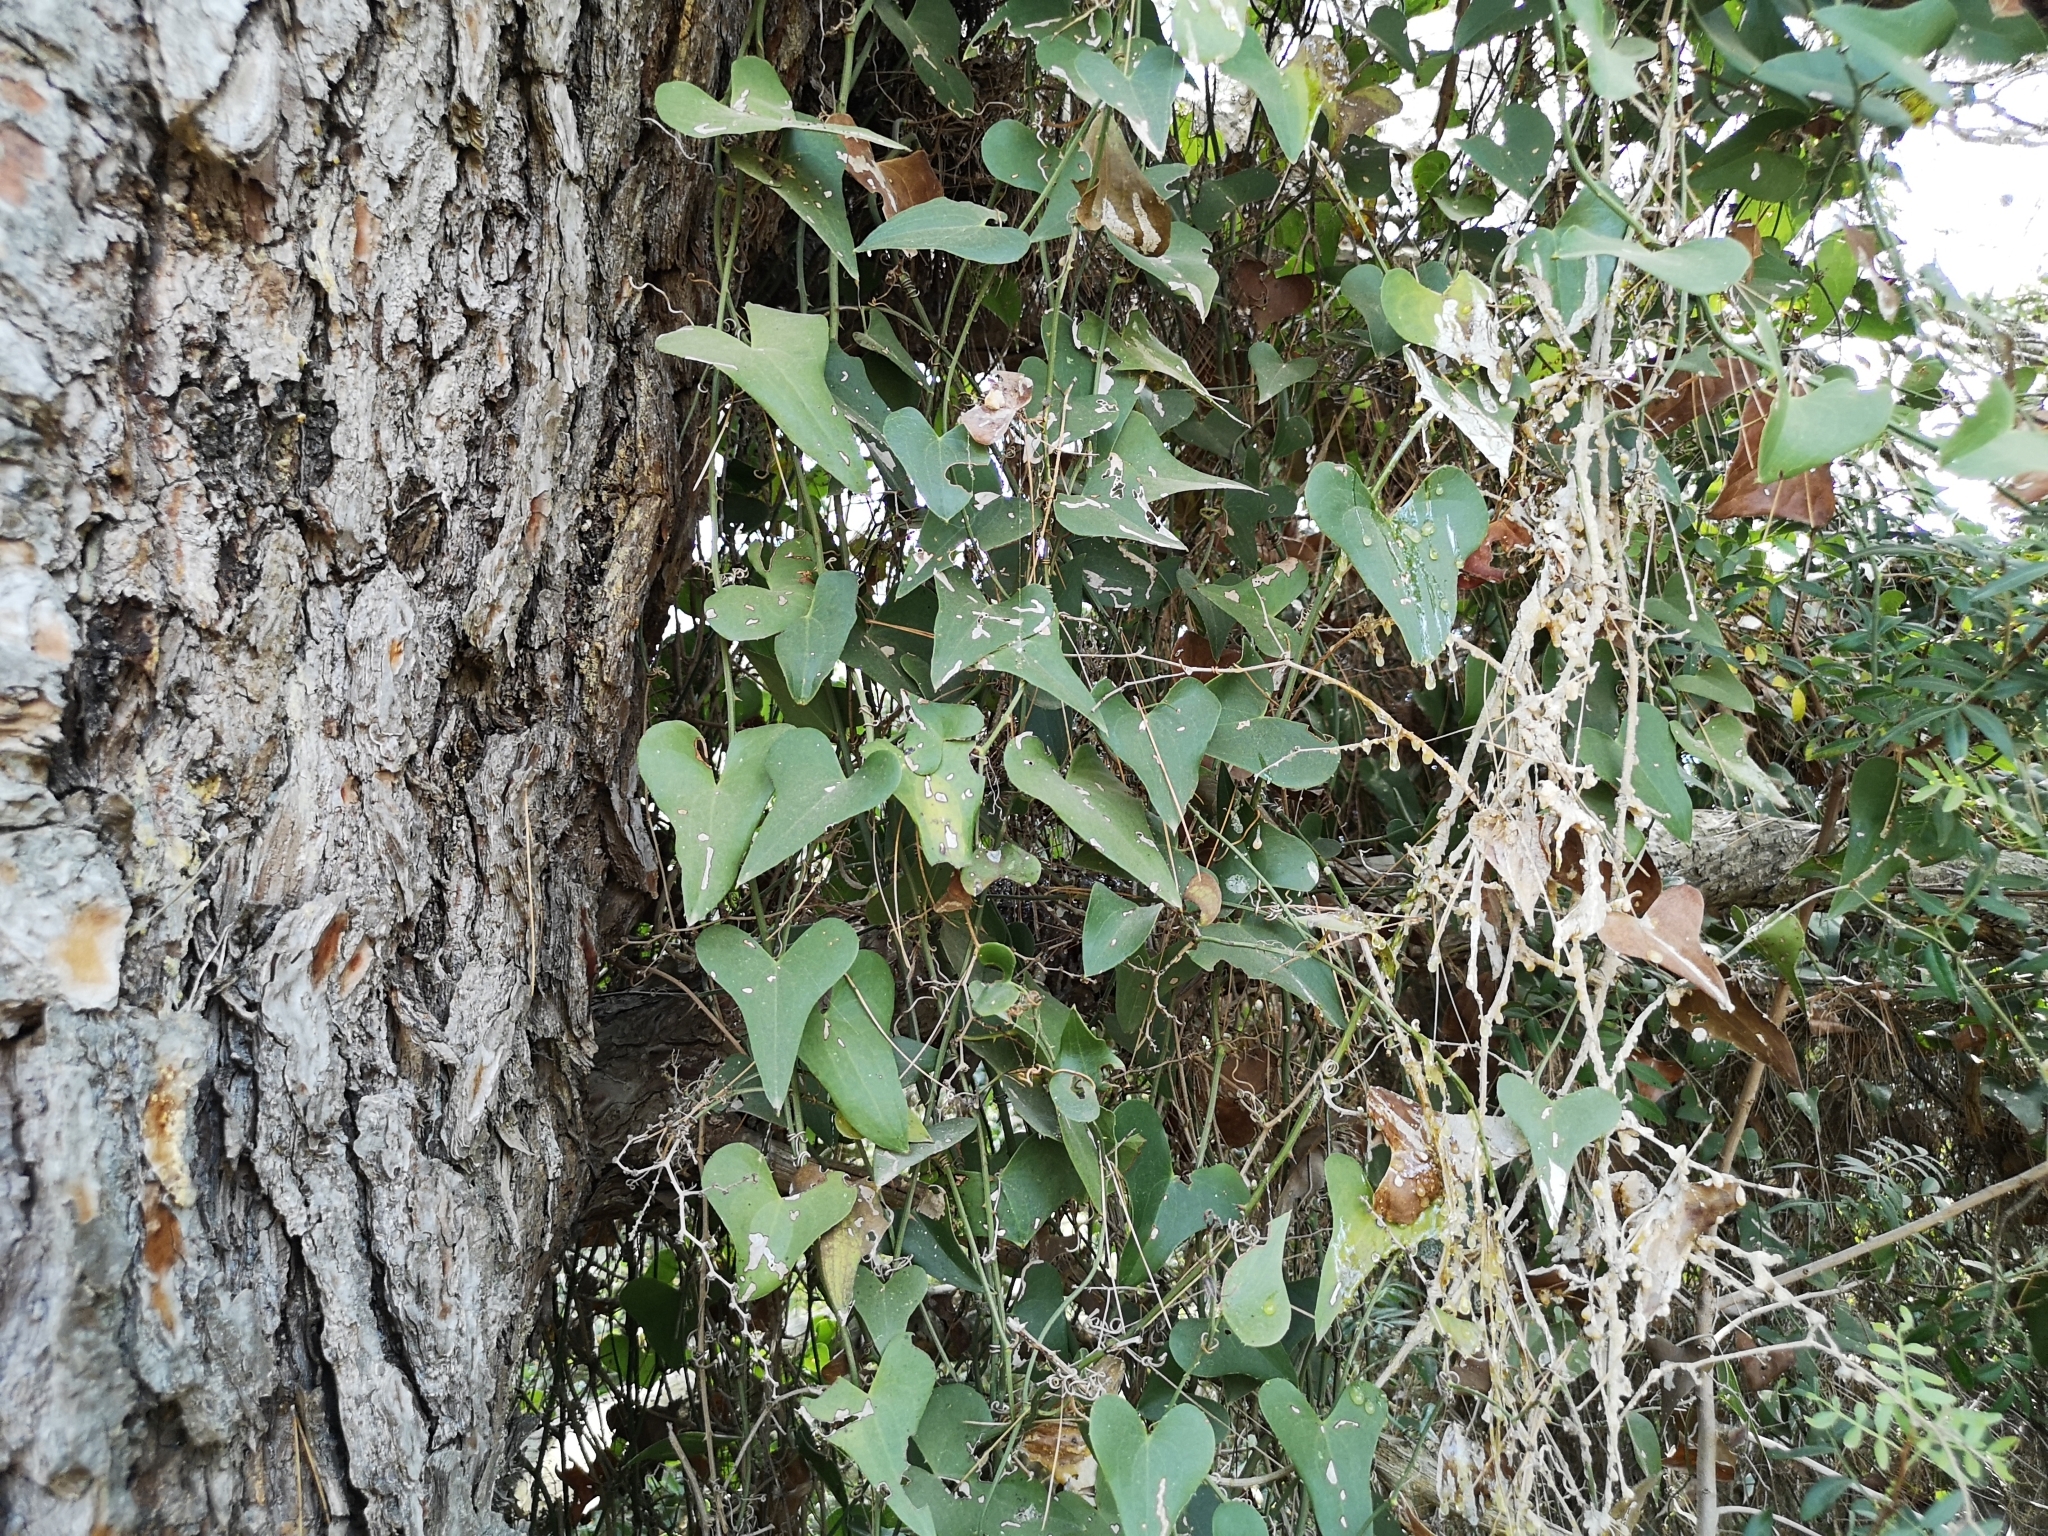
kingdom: Plantae
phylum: Tracheophyta
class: Liliopsida
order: Liliales
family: Smilacaceae
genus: Smilax
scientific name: Smilax aspera
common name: Common smilax
